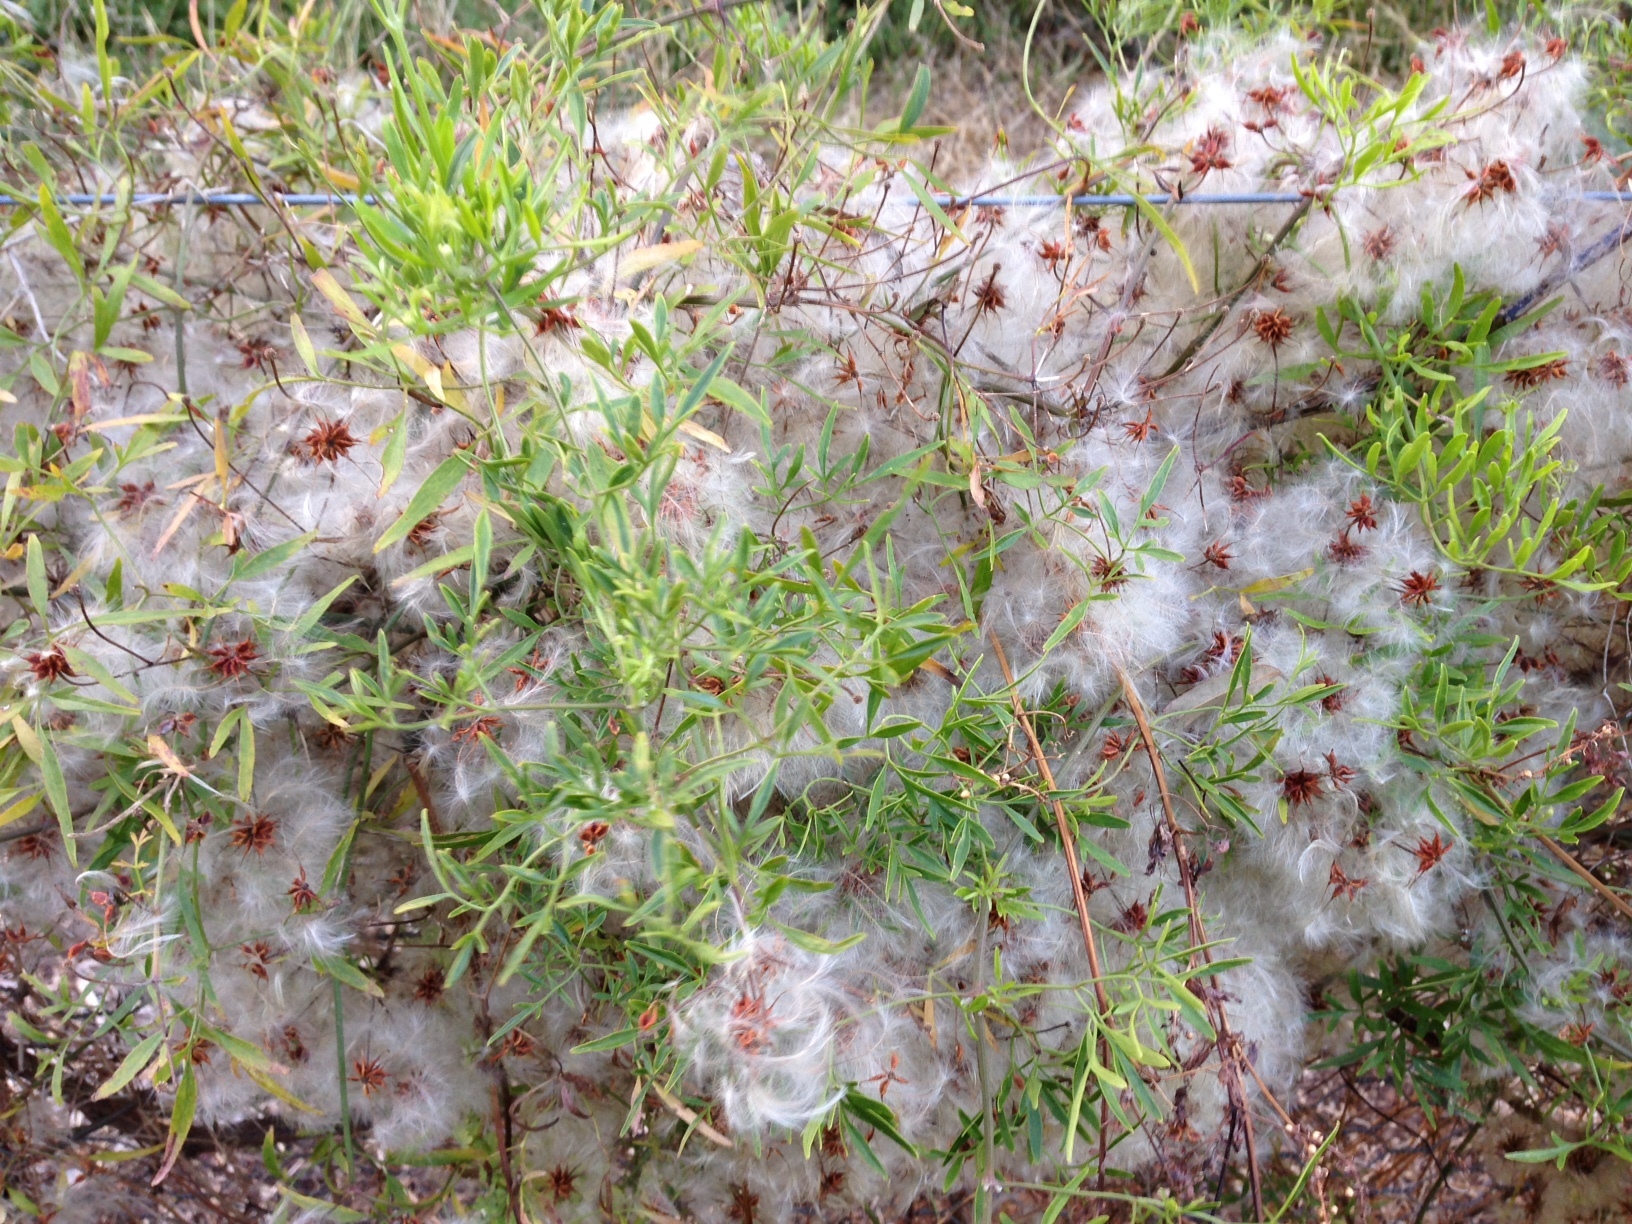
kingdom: Plantae
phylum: Tracheophyta
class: Magnoliopsida
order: Ranunculales
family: Ranunculaceae
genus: Clematis
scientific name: Clematis microphylla
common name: Headachevine
